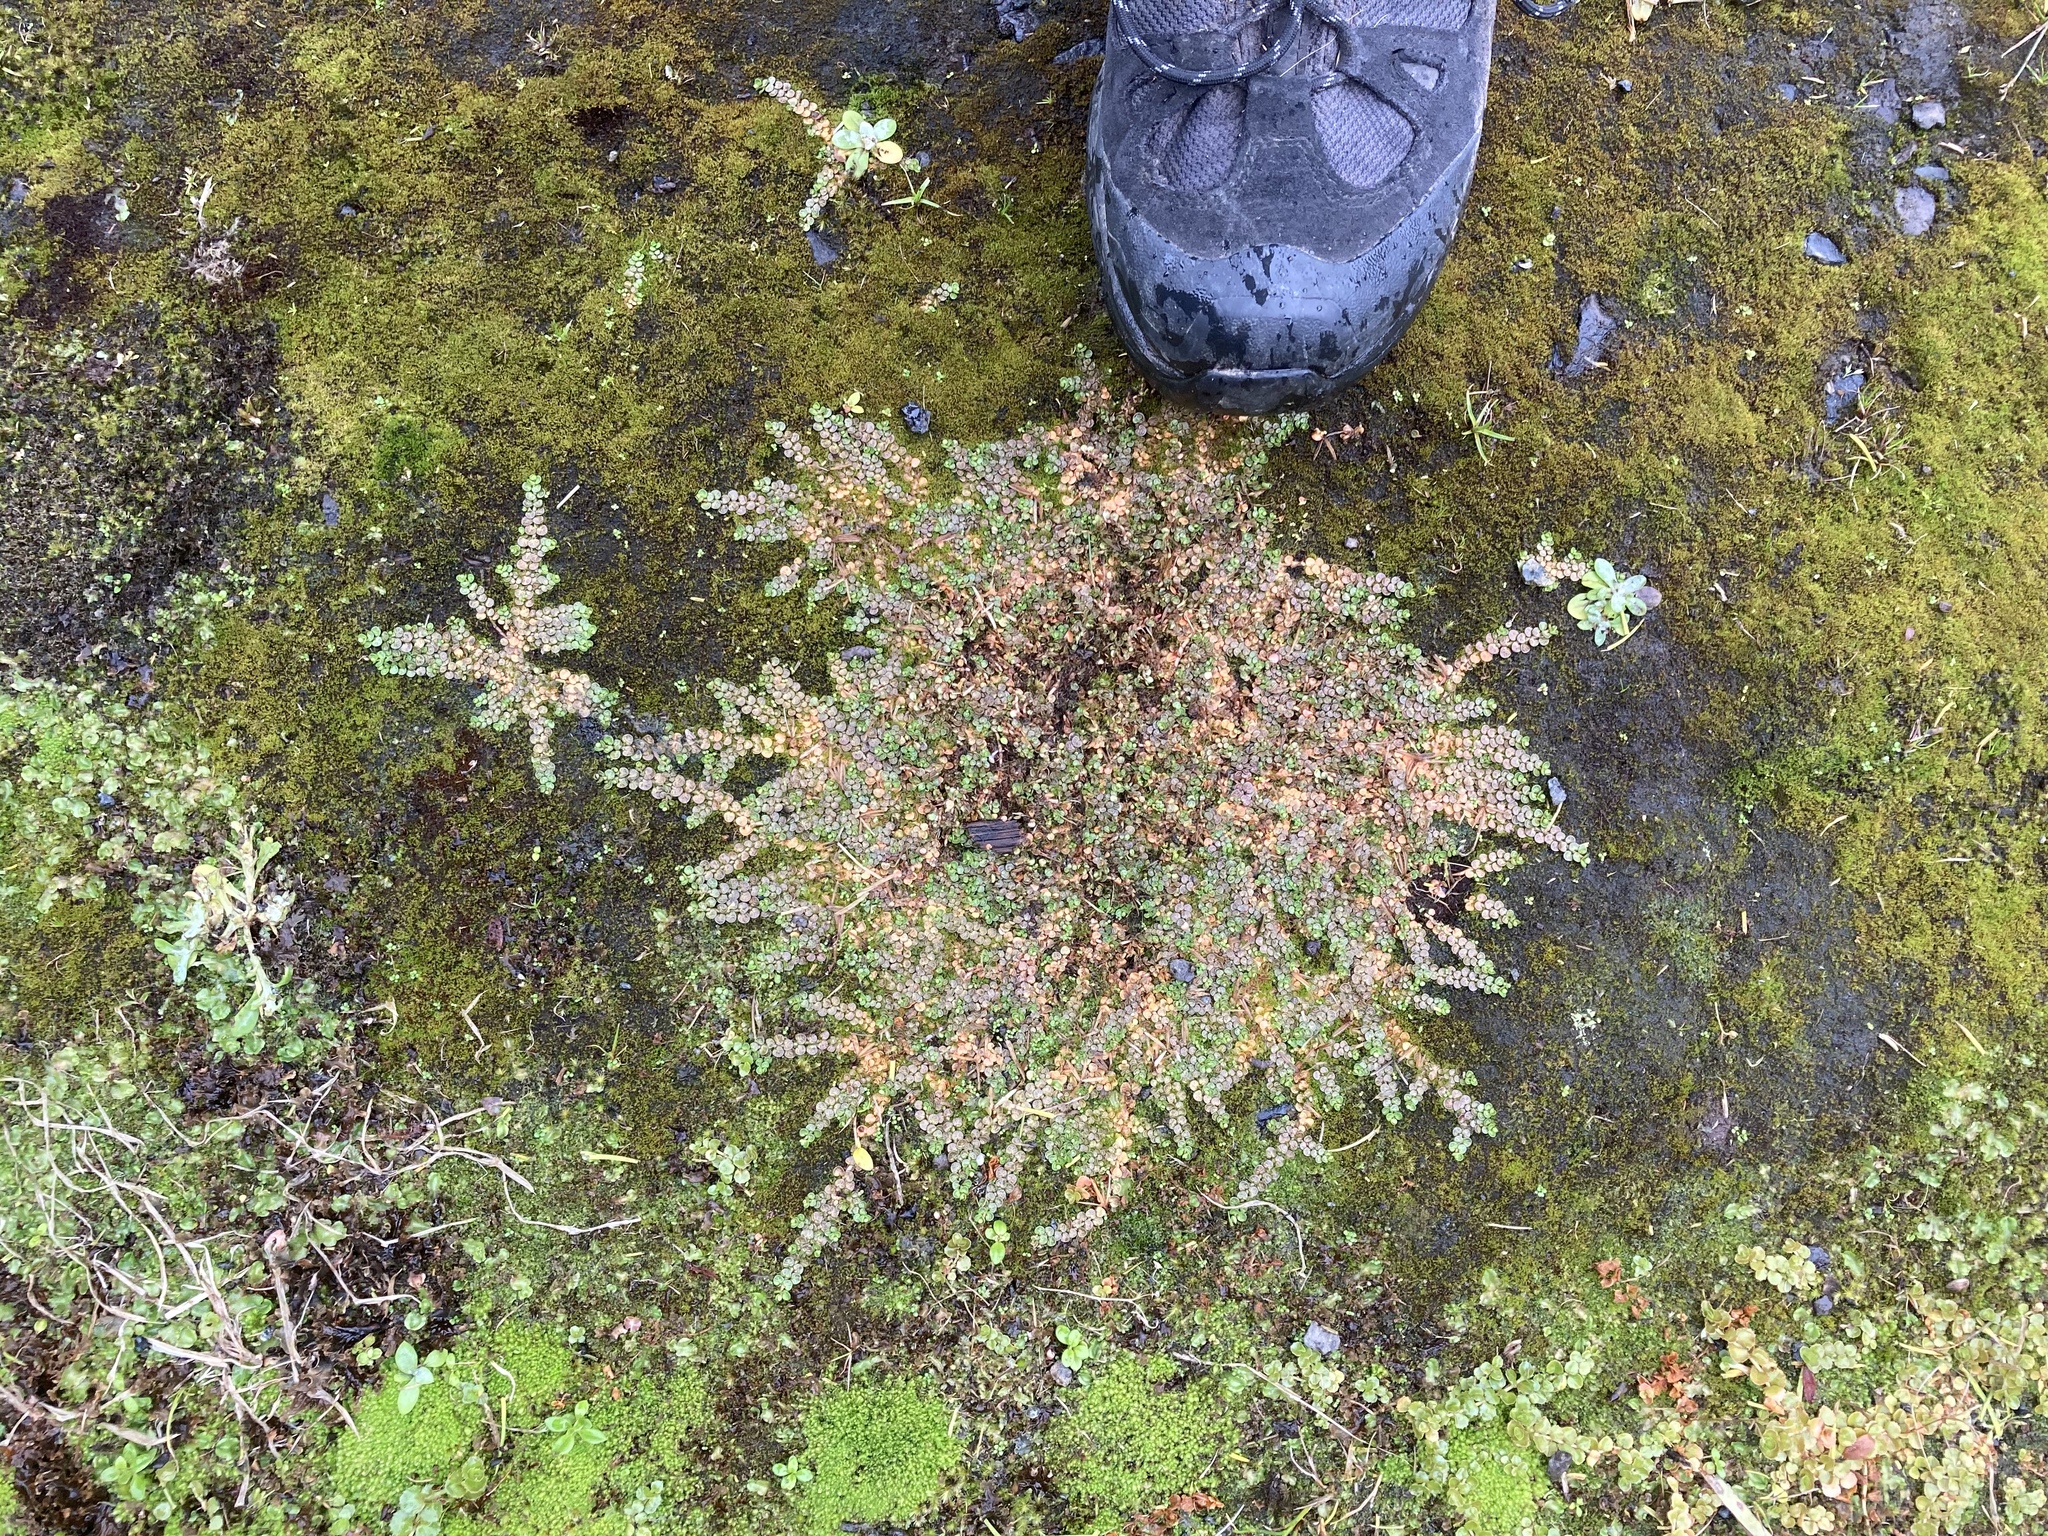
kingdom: Plantae
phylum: Tracheophyta
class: Magnoliopsida
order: Myrtales
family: Onagraceae
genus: Epilobium
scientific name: Epilobium komarovianum
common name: Bronzy willowherb
